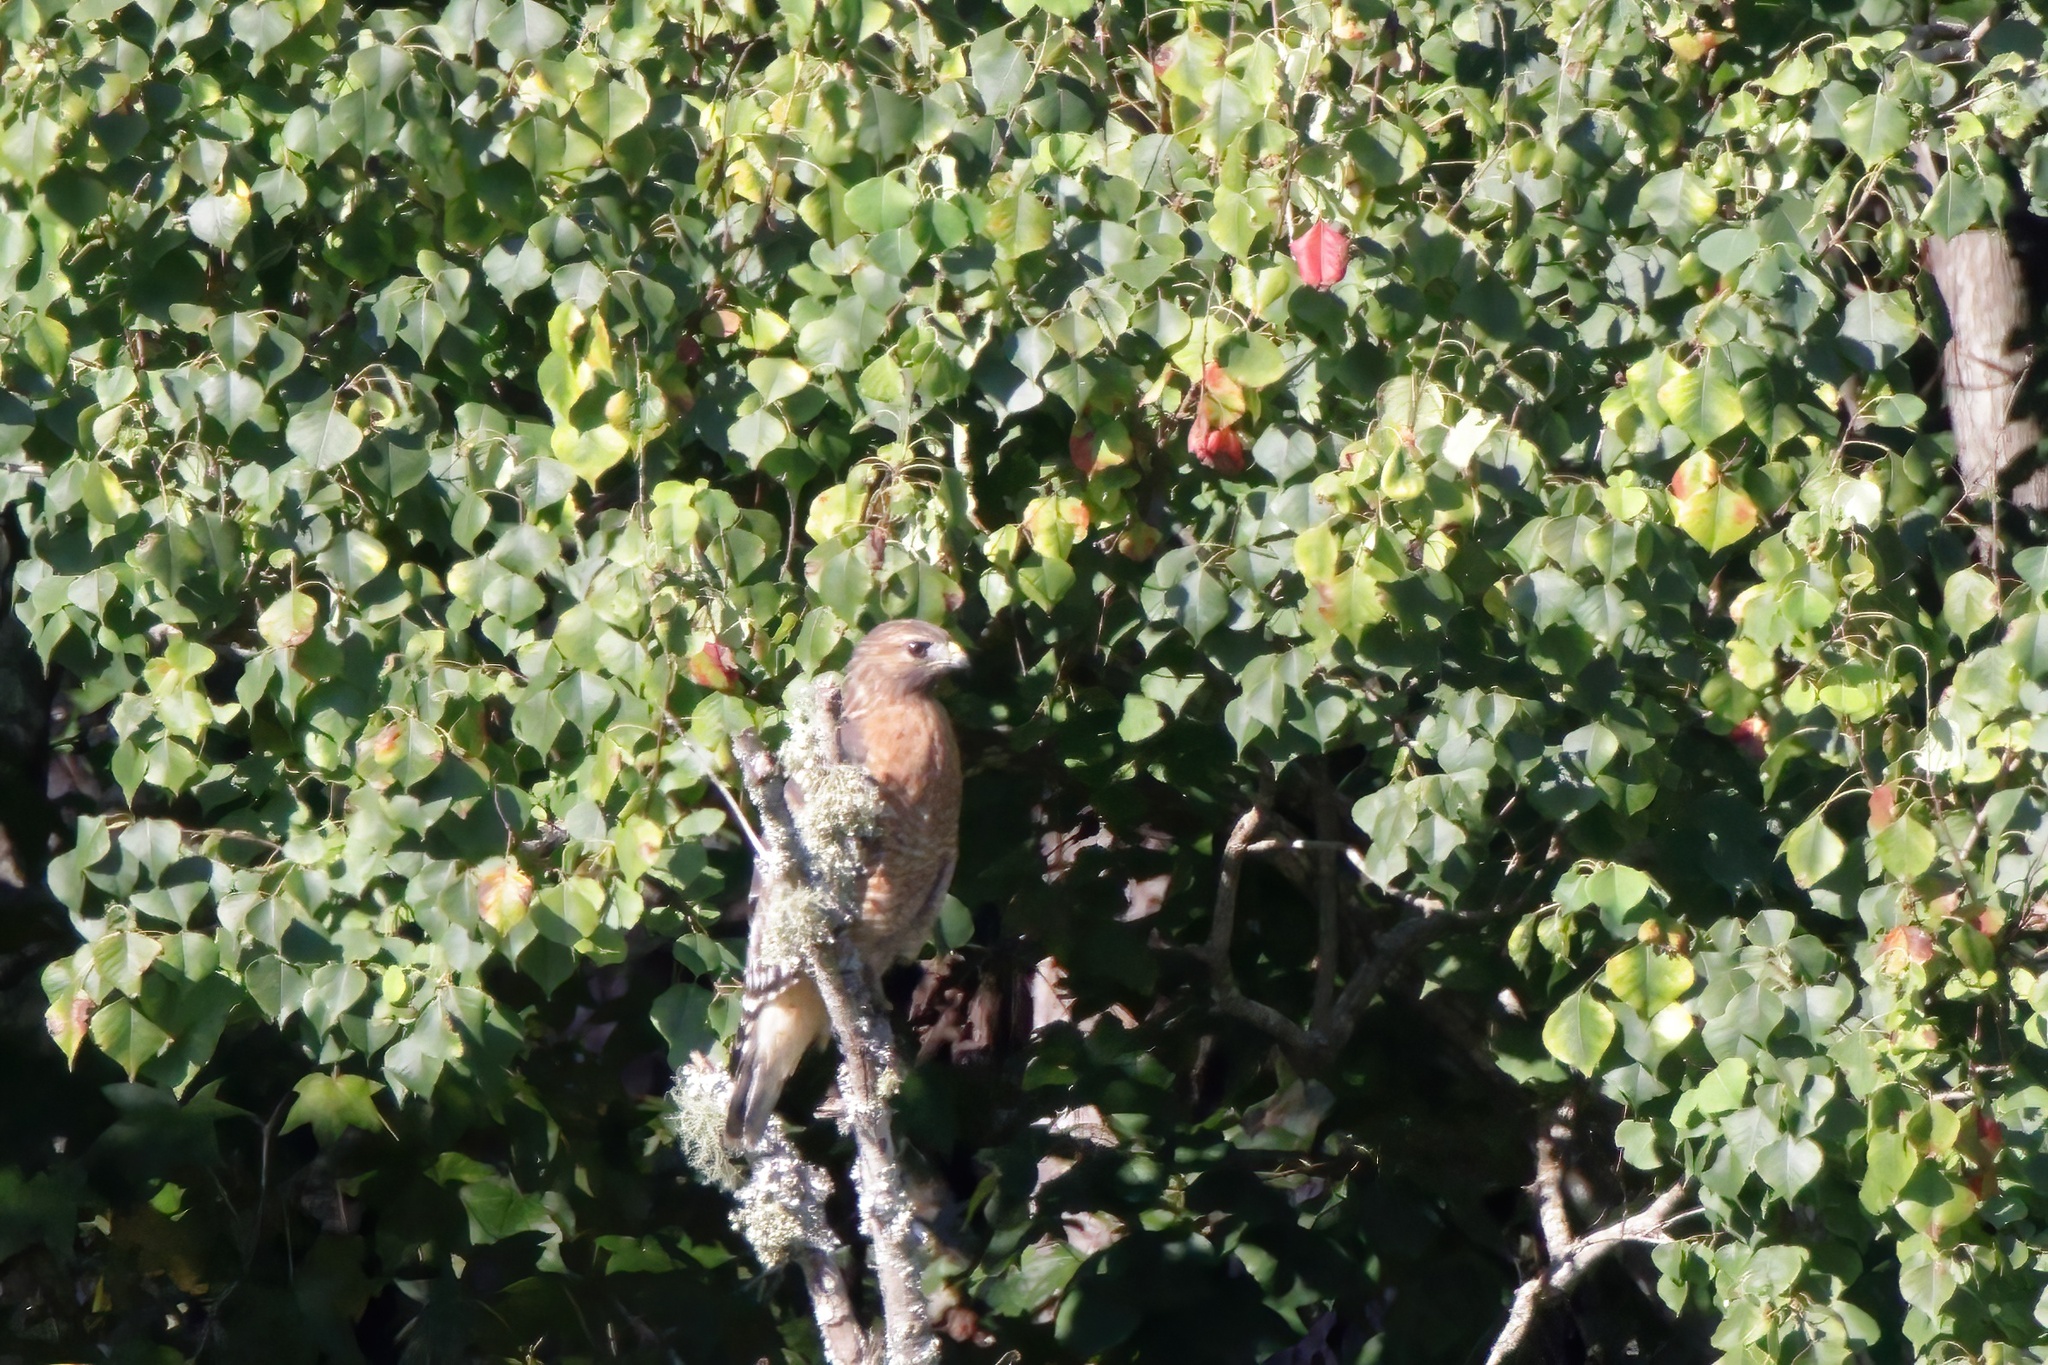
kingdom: Animalia
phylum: Chordata
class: Aves
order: Accipitriformes
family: Accipitridae
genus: Buteo
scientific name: Buteo lineatus
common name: Red-shouldered hawk
